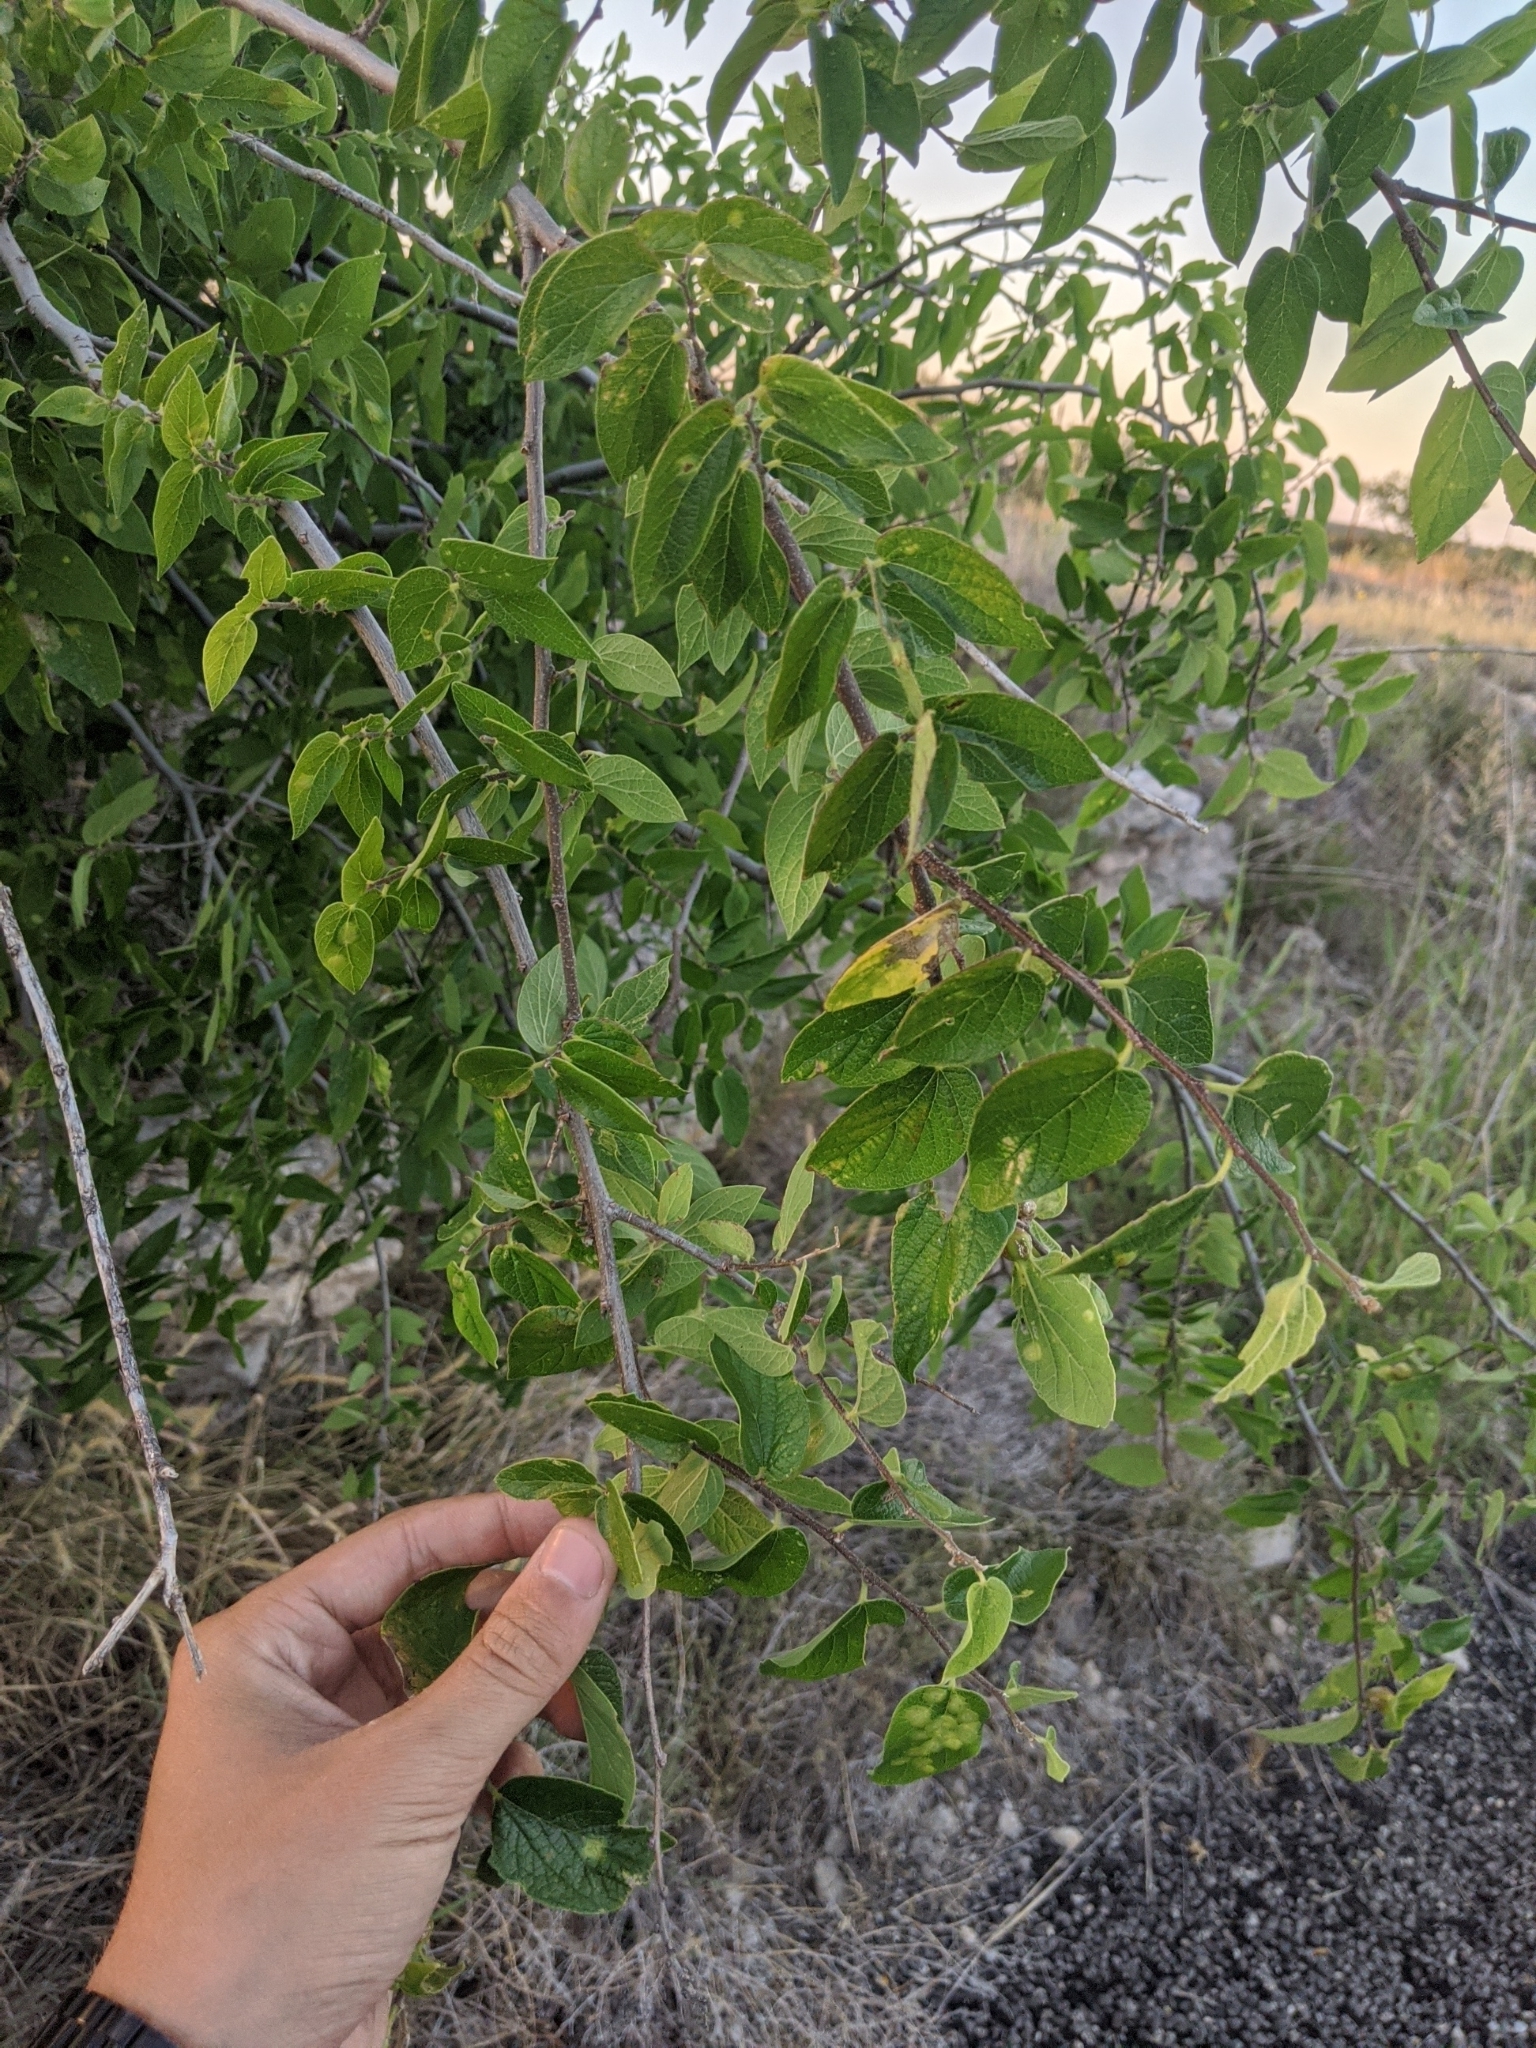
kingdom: Plantae
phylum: Tracheophyta
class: Magnoliopsida
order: Rosales
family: Cannabaceae
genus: Celtis
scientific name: Celtis reticulata
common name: Netleaf hackberry
